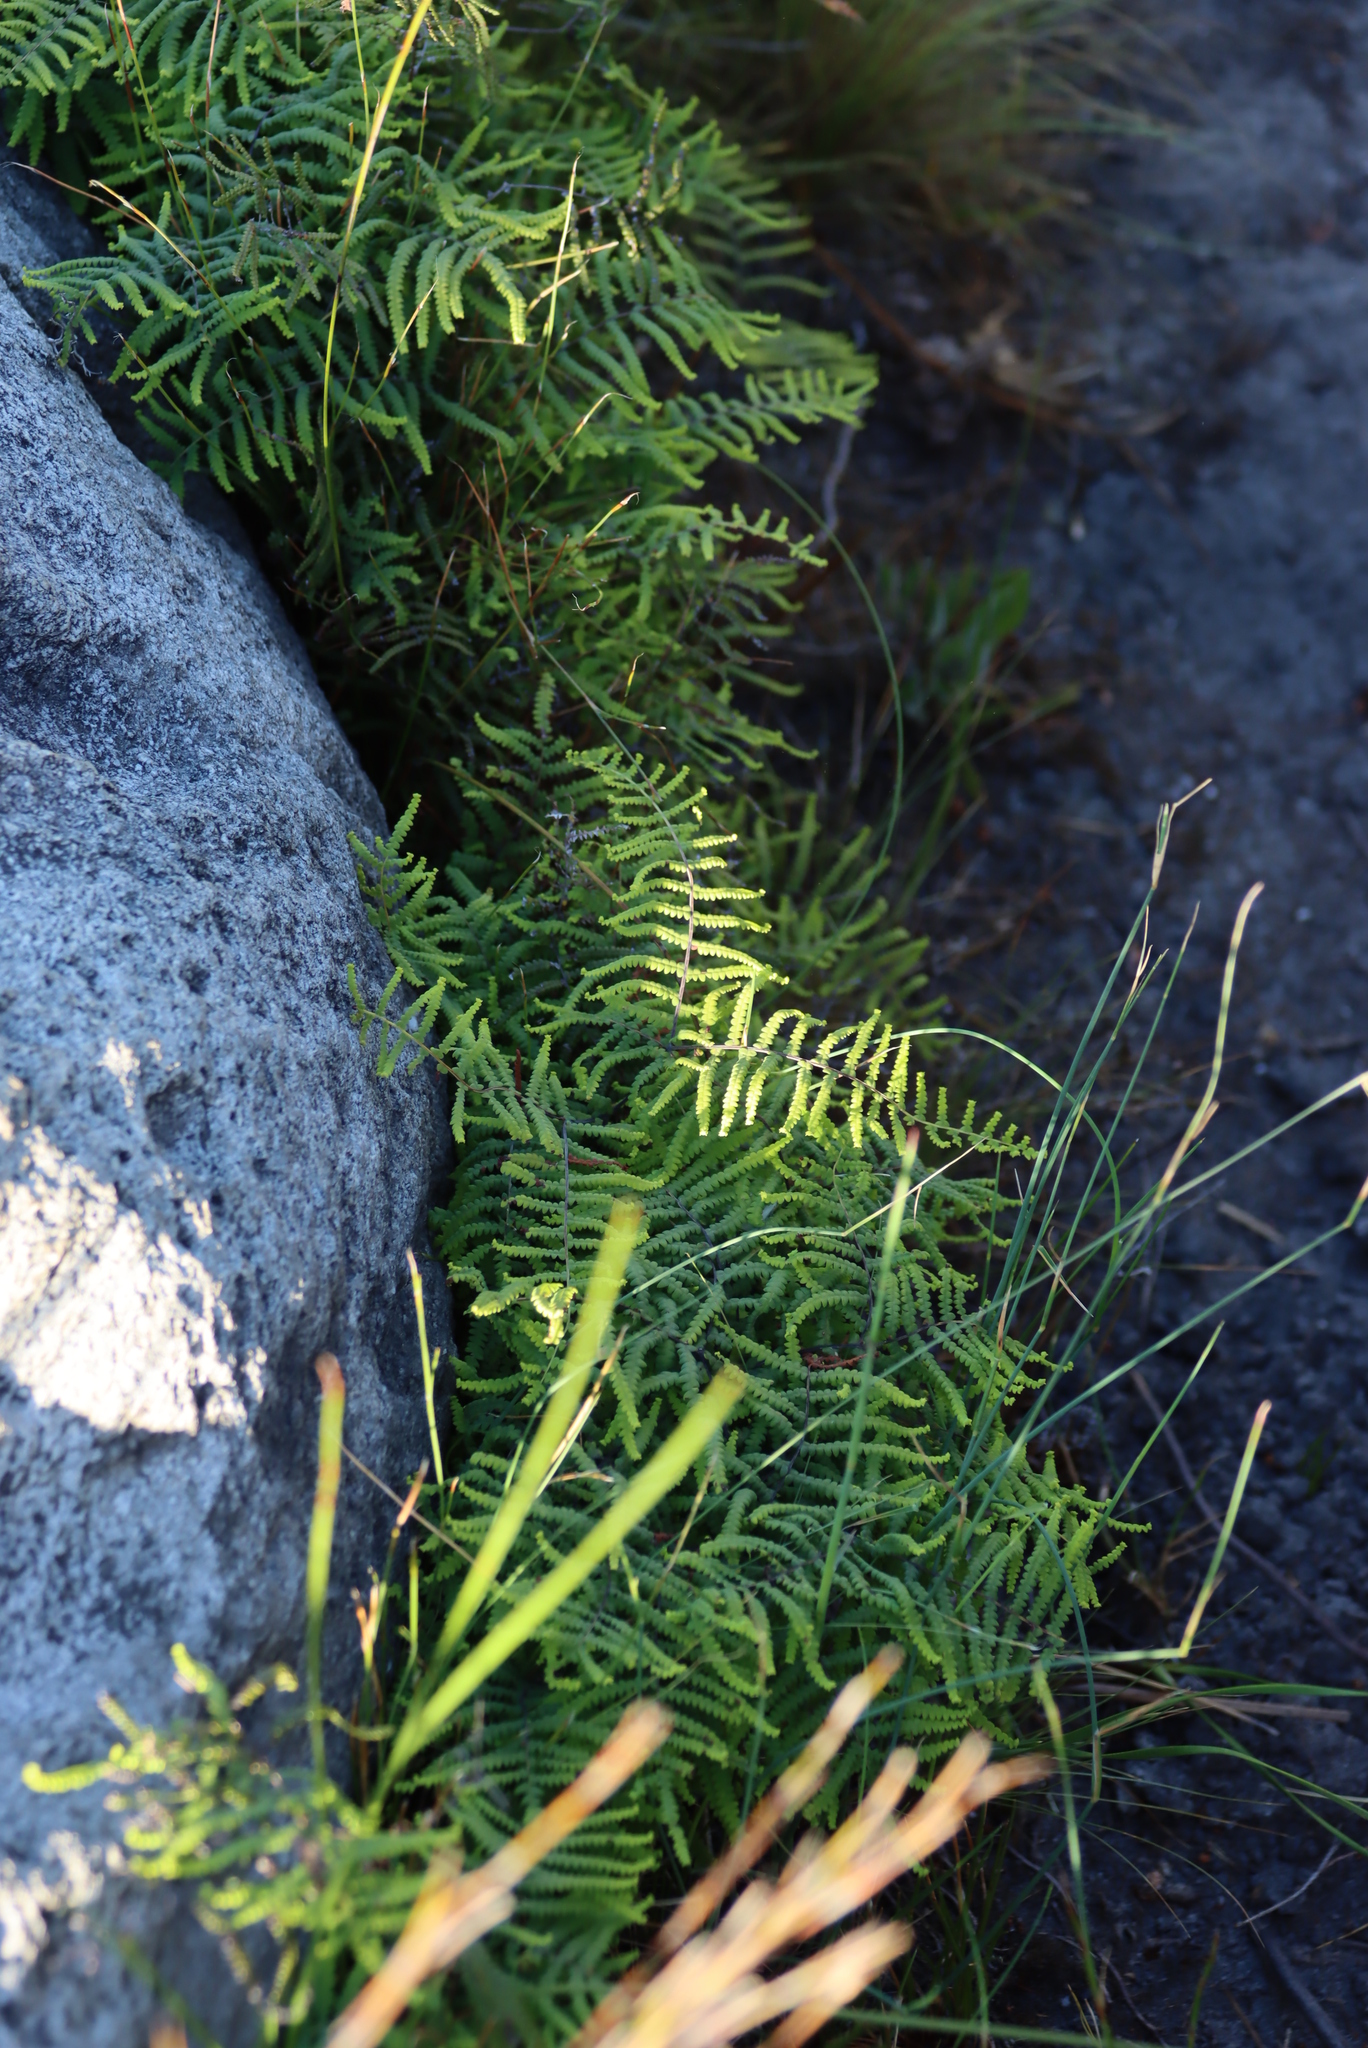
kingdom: Plantae
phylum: Tracheophyta
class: Polypodiopsida
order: Gleicheniales
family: Gleicheniaceae
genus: Gleichenia
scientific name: Gleichenia polypodioides
